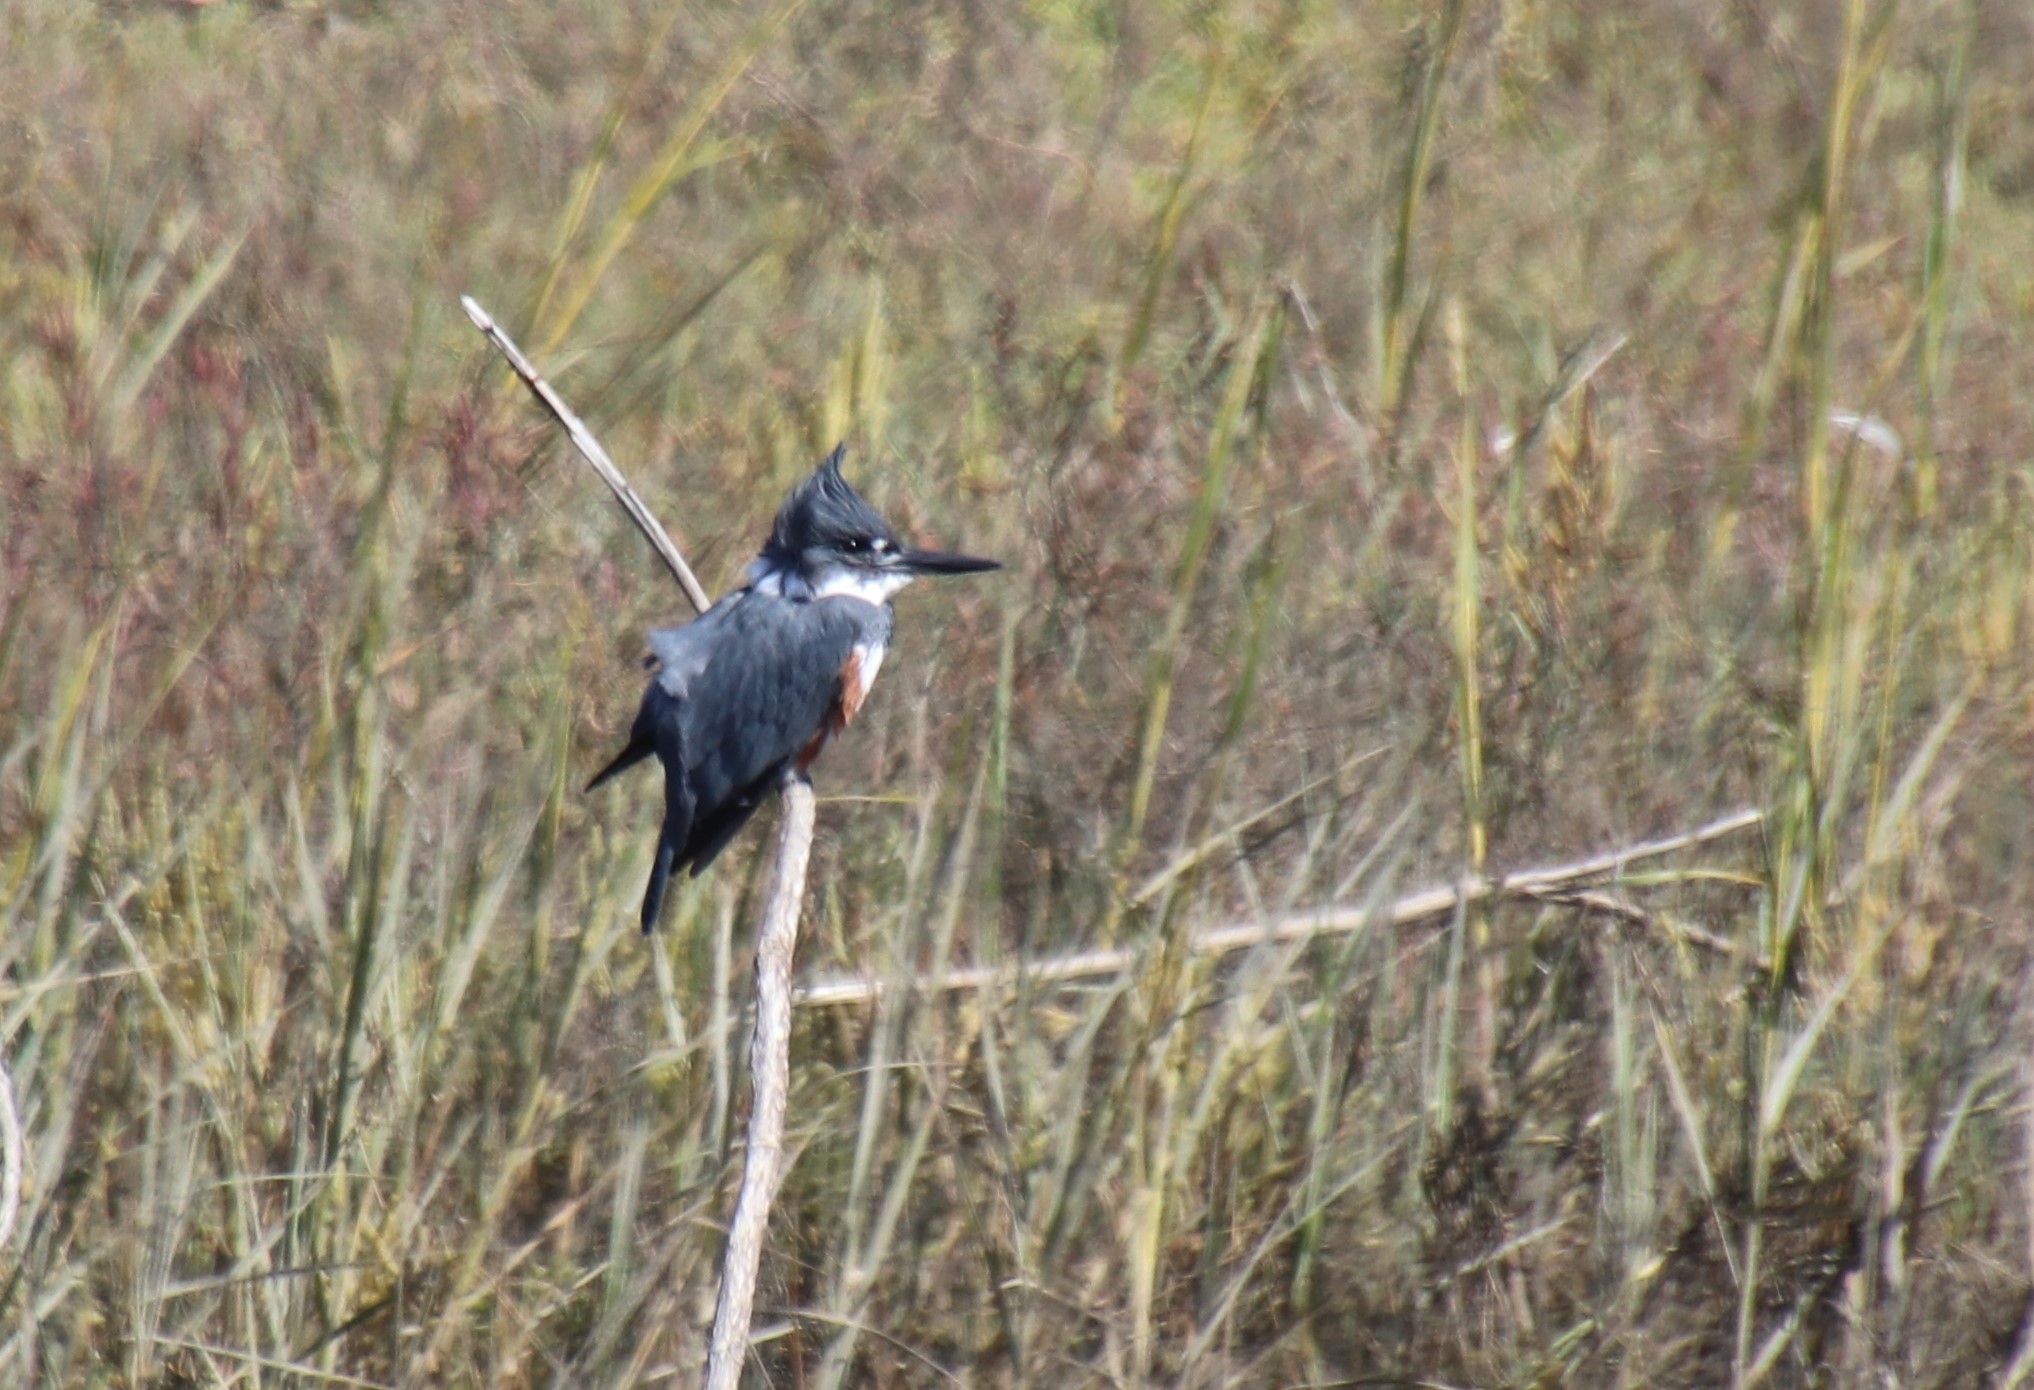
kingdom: Animalia
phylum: Chordata
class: Aves
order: Coraciiformes
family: Alcedinidae
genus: Megaceryle
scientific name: Megaceryle alcyon
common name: Belted kingfisher
